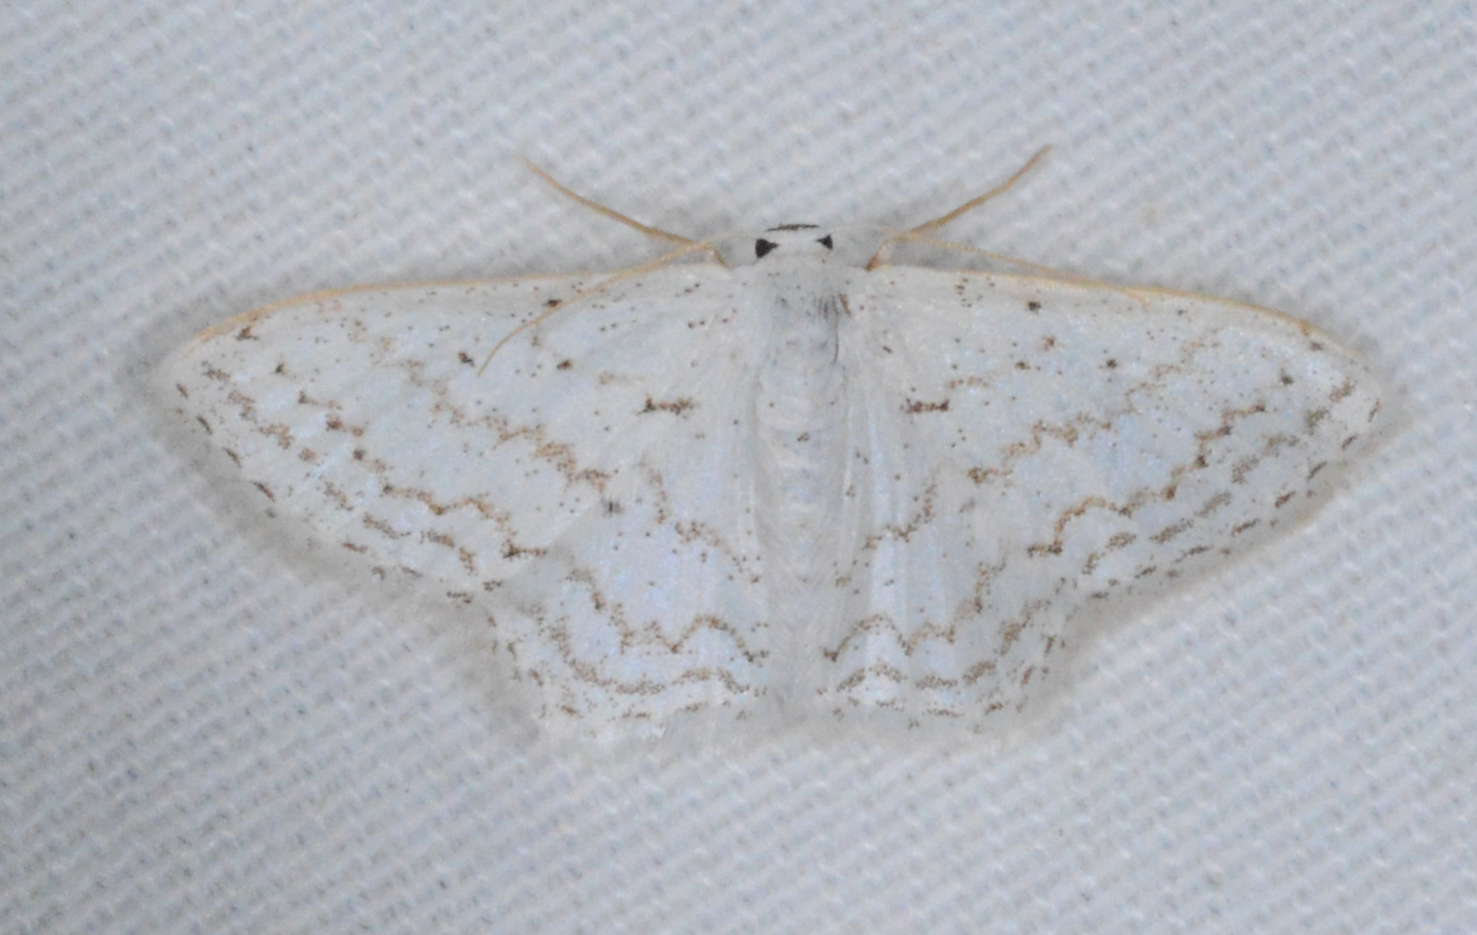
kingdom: Animalia
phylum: Arthropoda
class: Insecta
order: Lepidoptera
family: Geometridae
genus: Idaea
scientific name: Idaea tacturata
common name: Dot-lined wave
